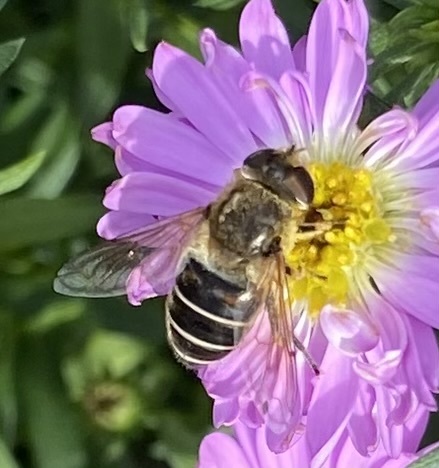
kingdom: Animalia
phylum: Arthropoda
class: Insecta
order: Diptera
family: Syrphidae
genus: Eristalis
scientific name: Eristalis nemorum
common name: Orange-spined drone fly
